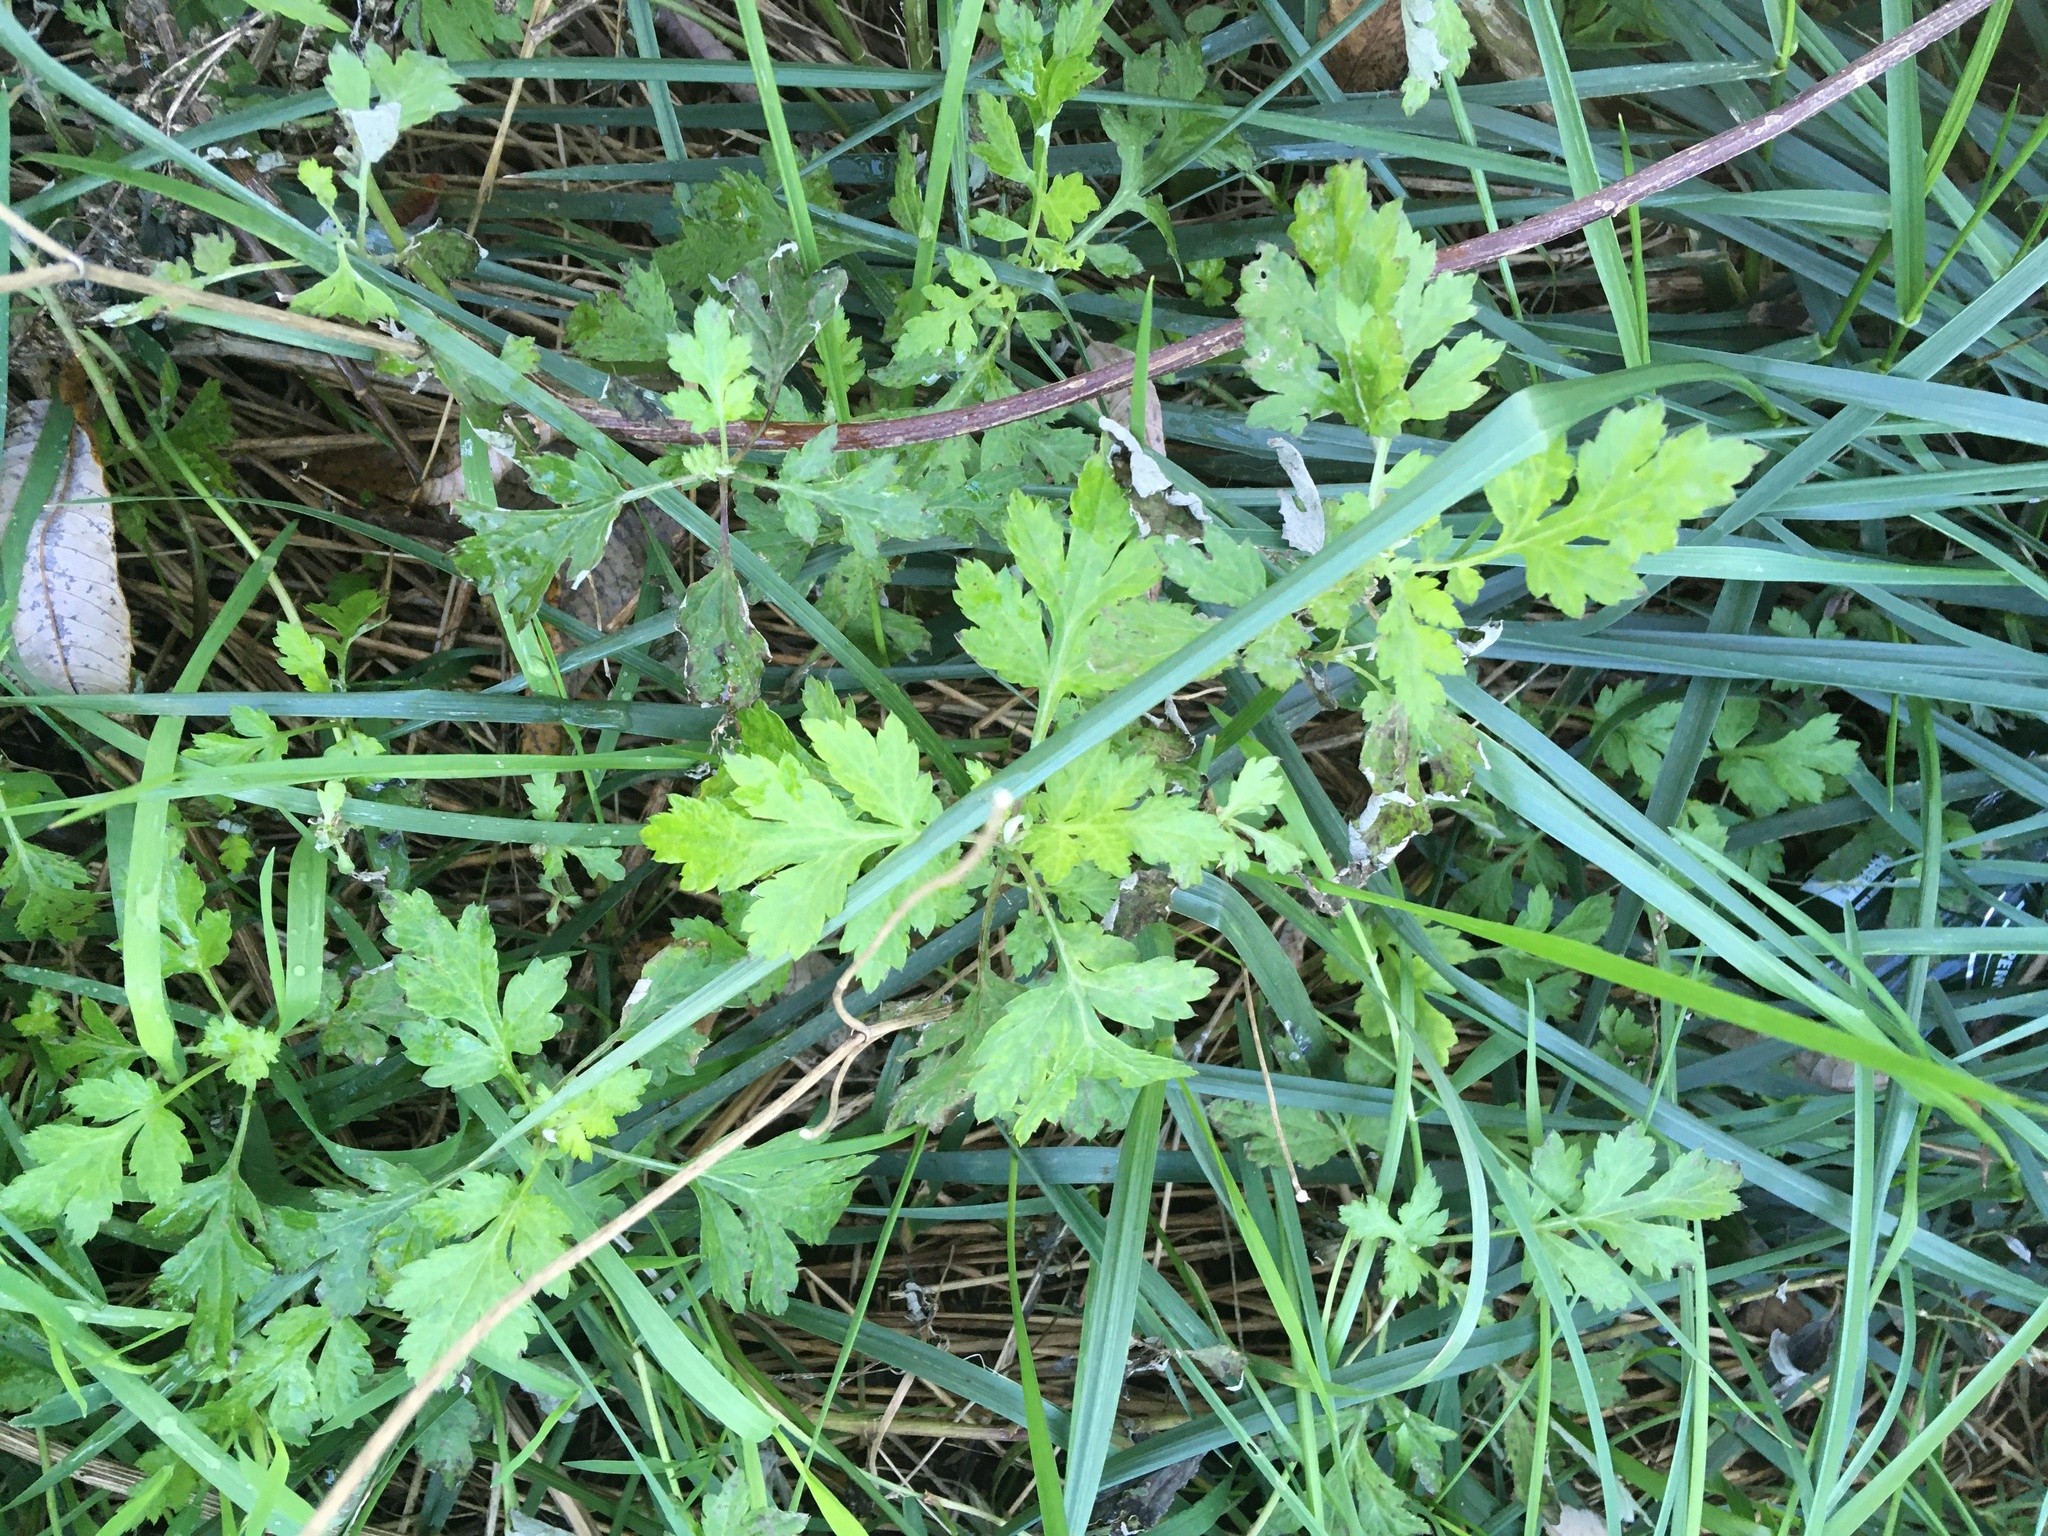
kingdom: Plantae
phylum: Tracheophyta
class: Magnoliopsida
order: Asterales
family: Asteraceae
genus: Artemisia
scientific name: Artemisia vulgaris
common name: Mugwort
